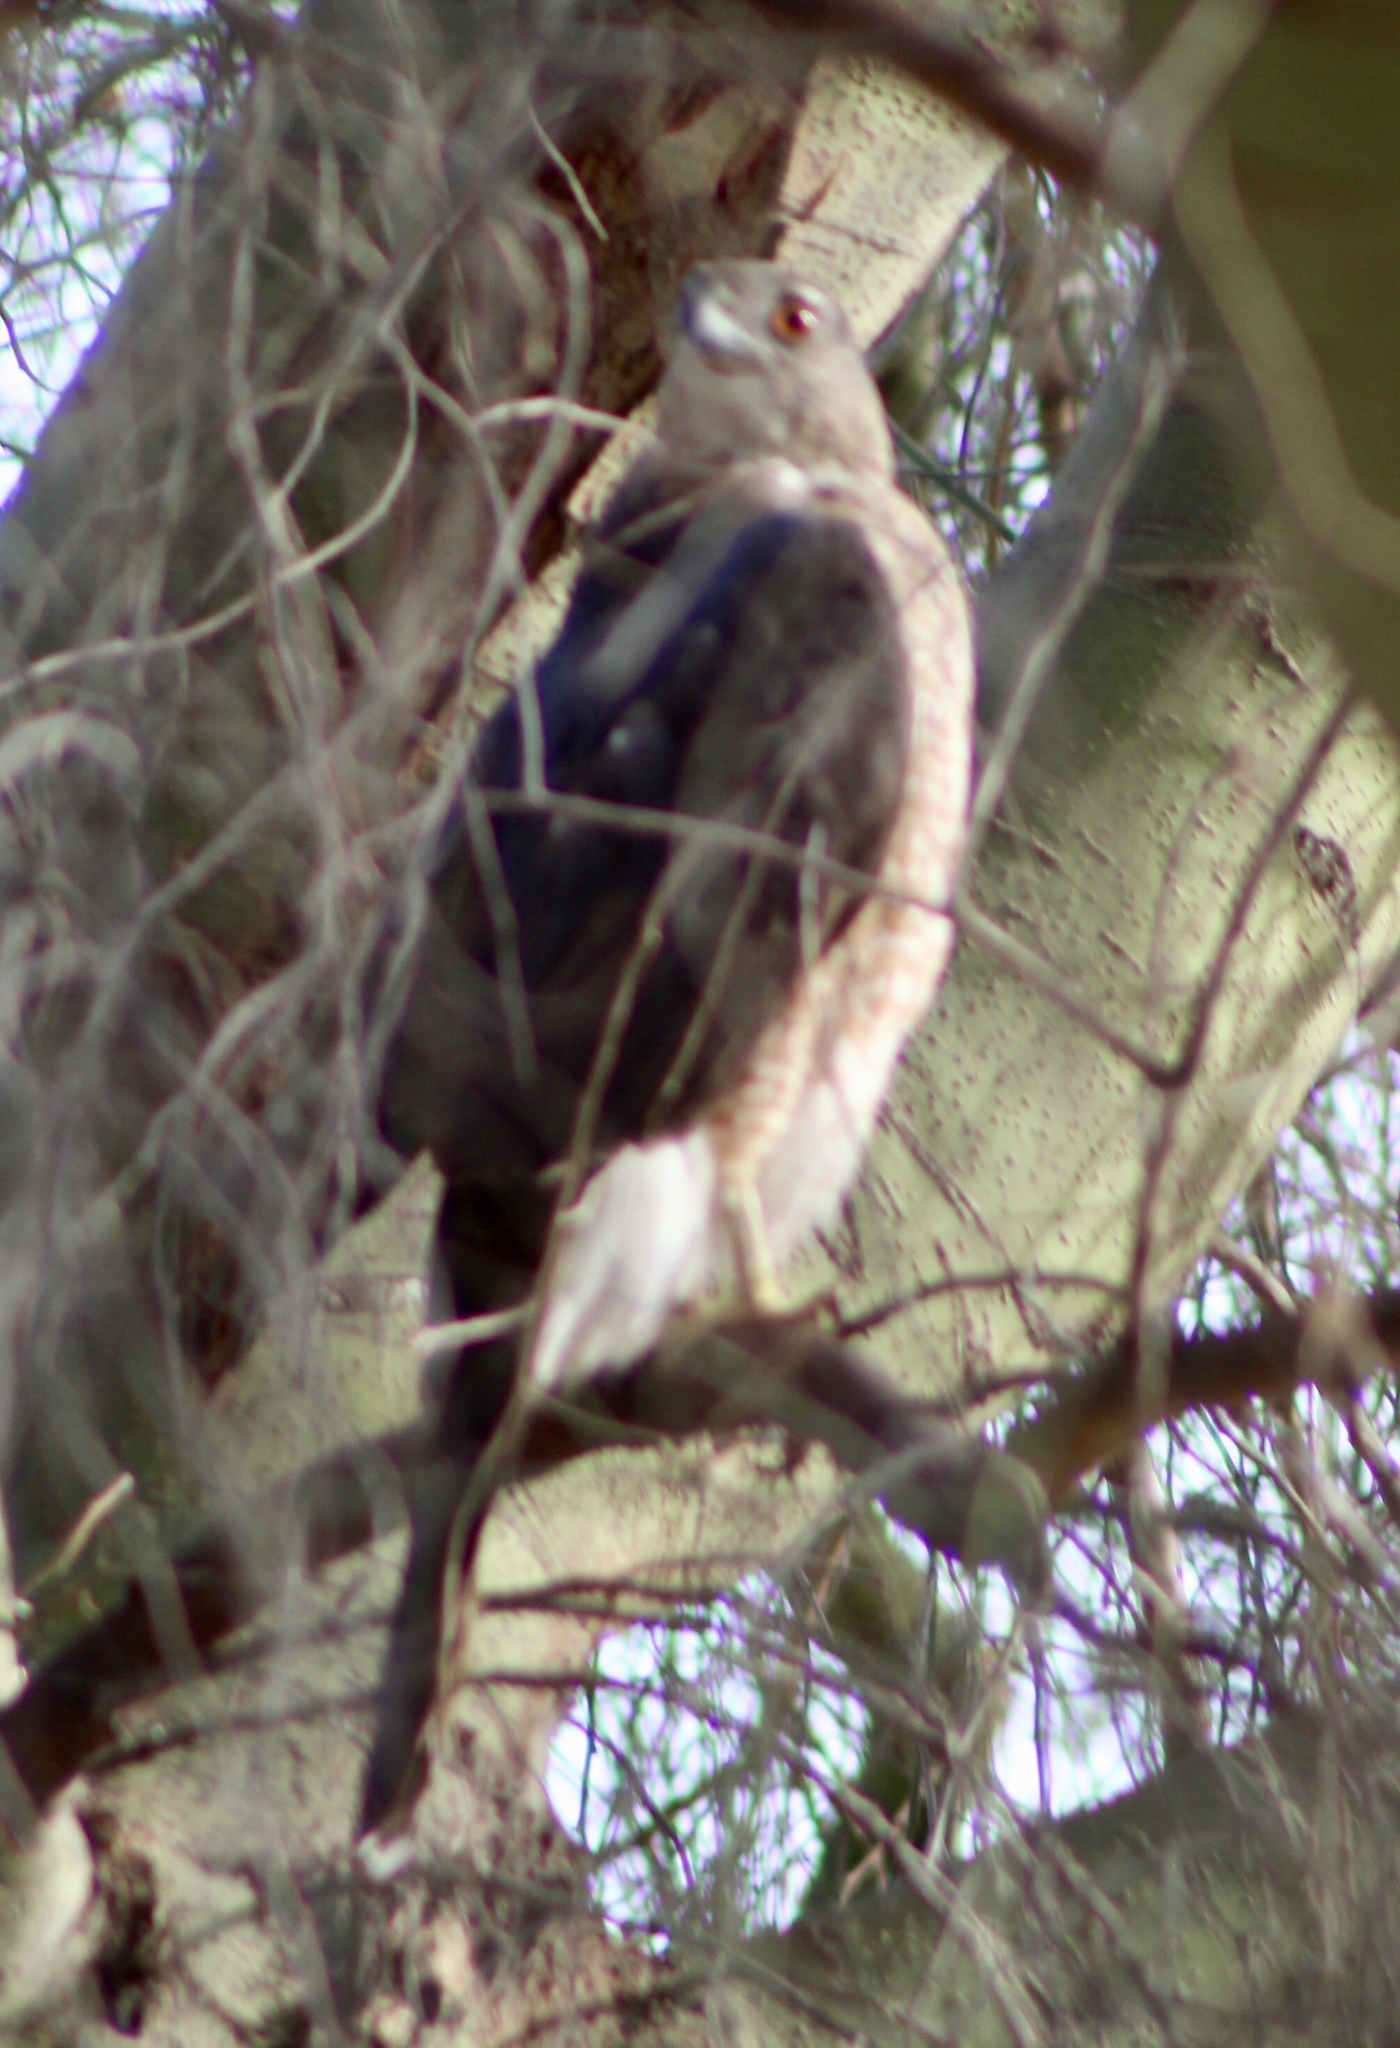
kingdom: Animalia
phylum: Chordata
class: Aves
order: Accipitriformes
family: Accipitridae
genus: Accipiter
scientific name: Accipiter cooperii
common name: Cooper's hawk
